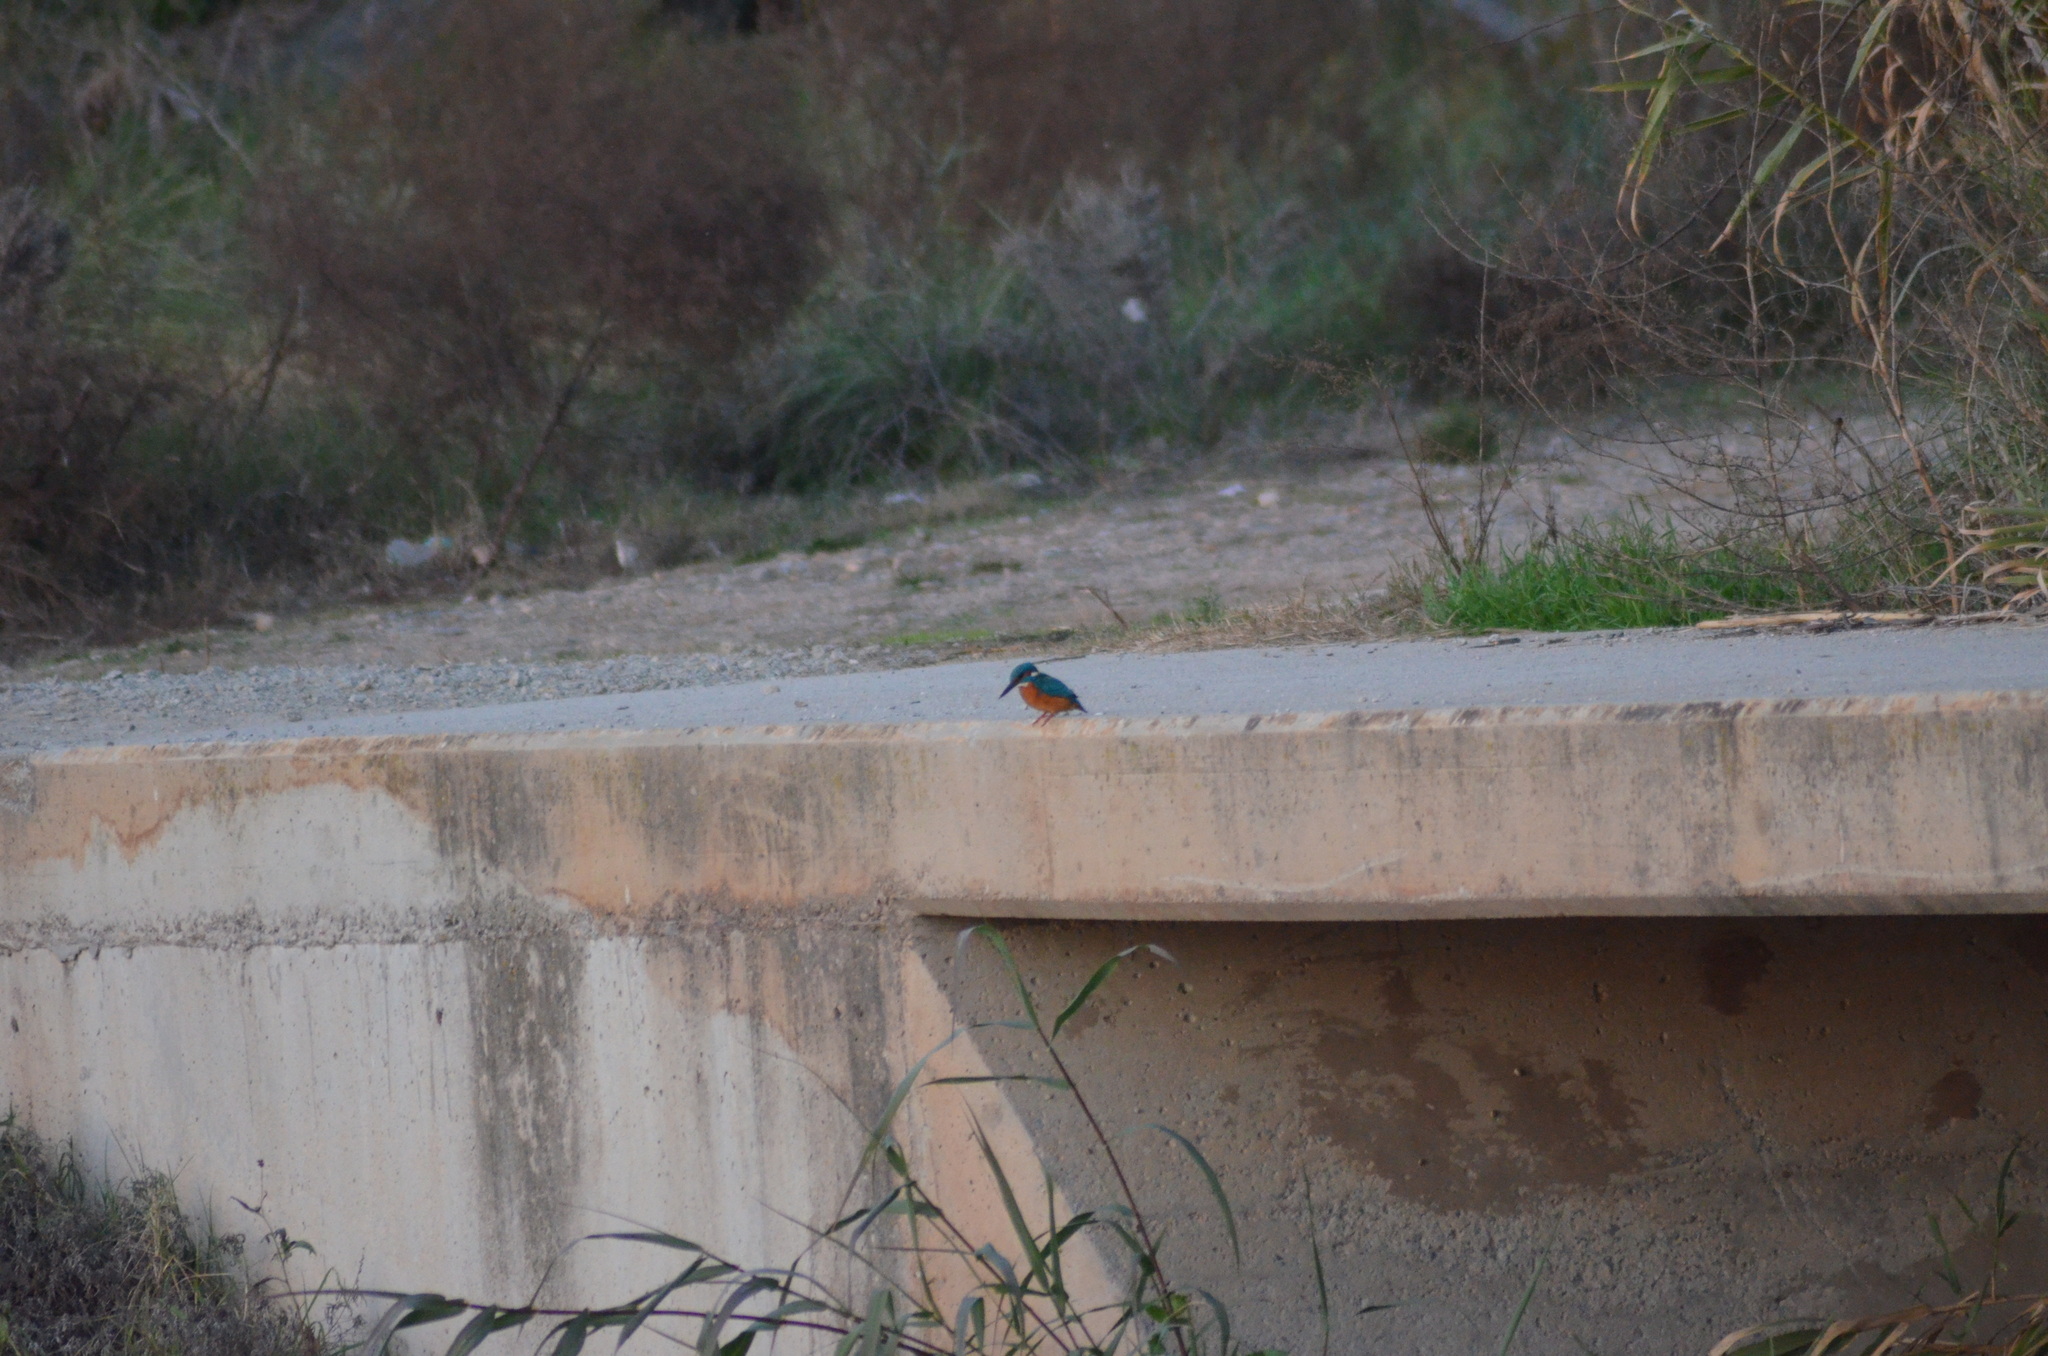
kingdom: Animalia
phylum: Chordata
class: Aves
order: Coraciiformes
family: Alcedinidae
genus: Alcedo
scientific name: Alcedo atthis
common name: Common kingfisher
